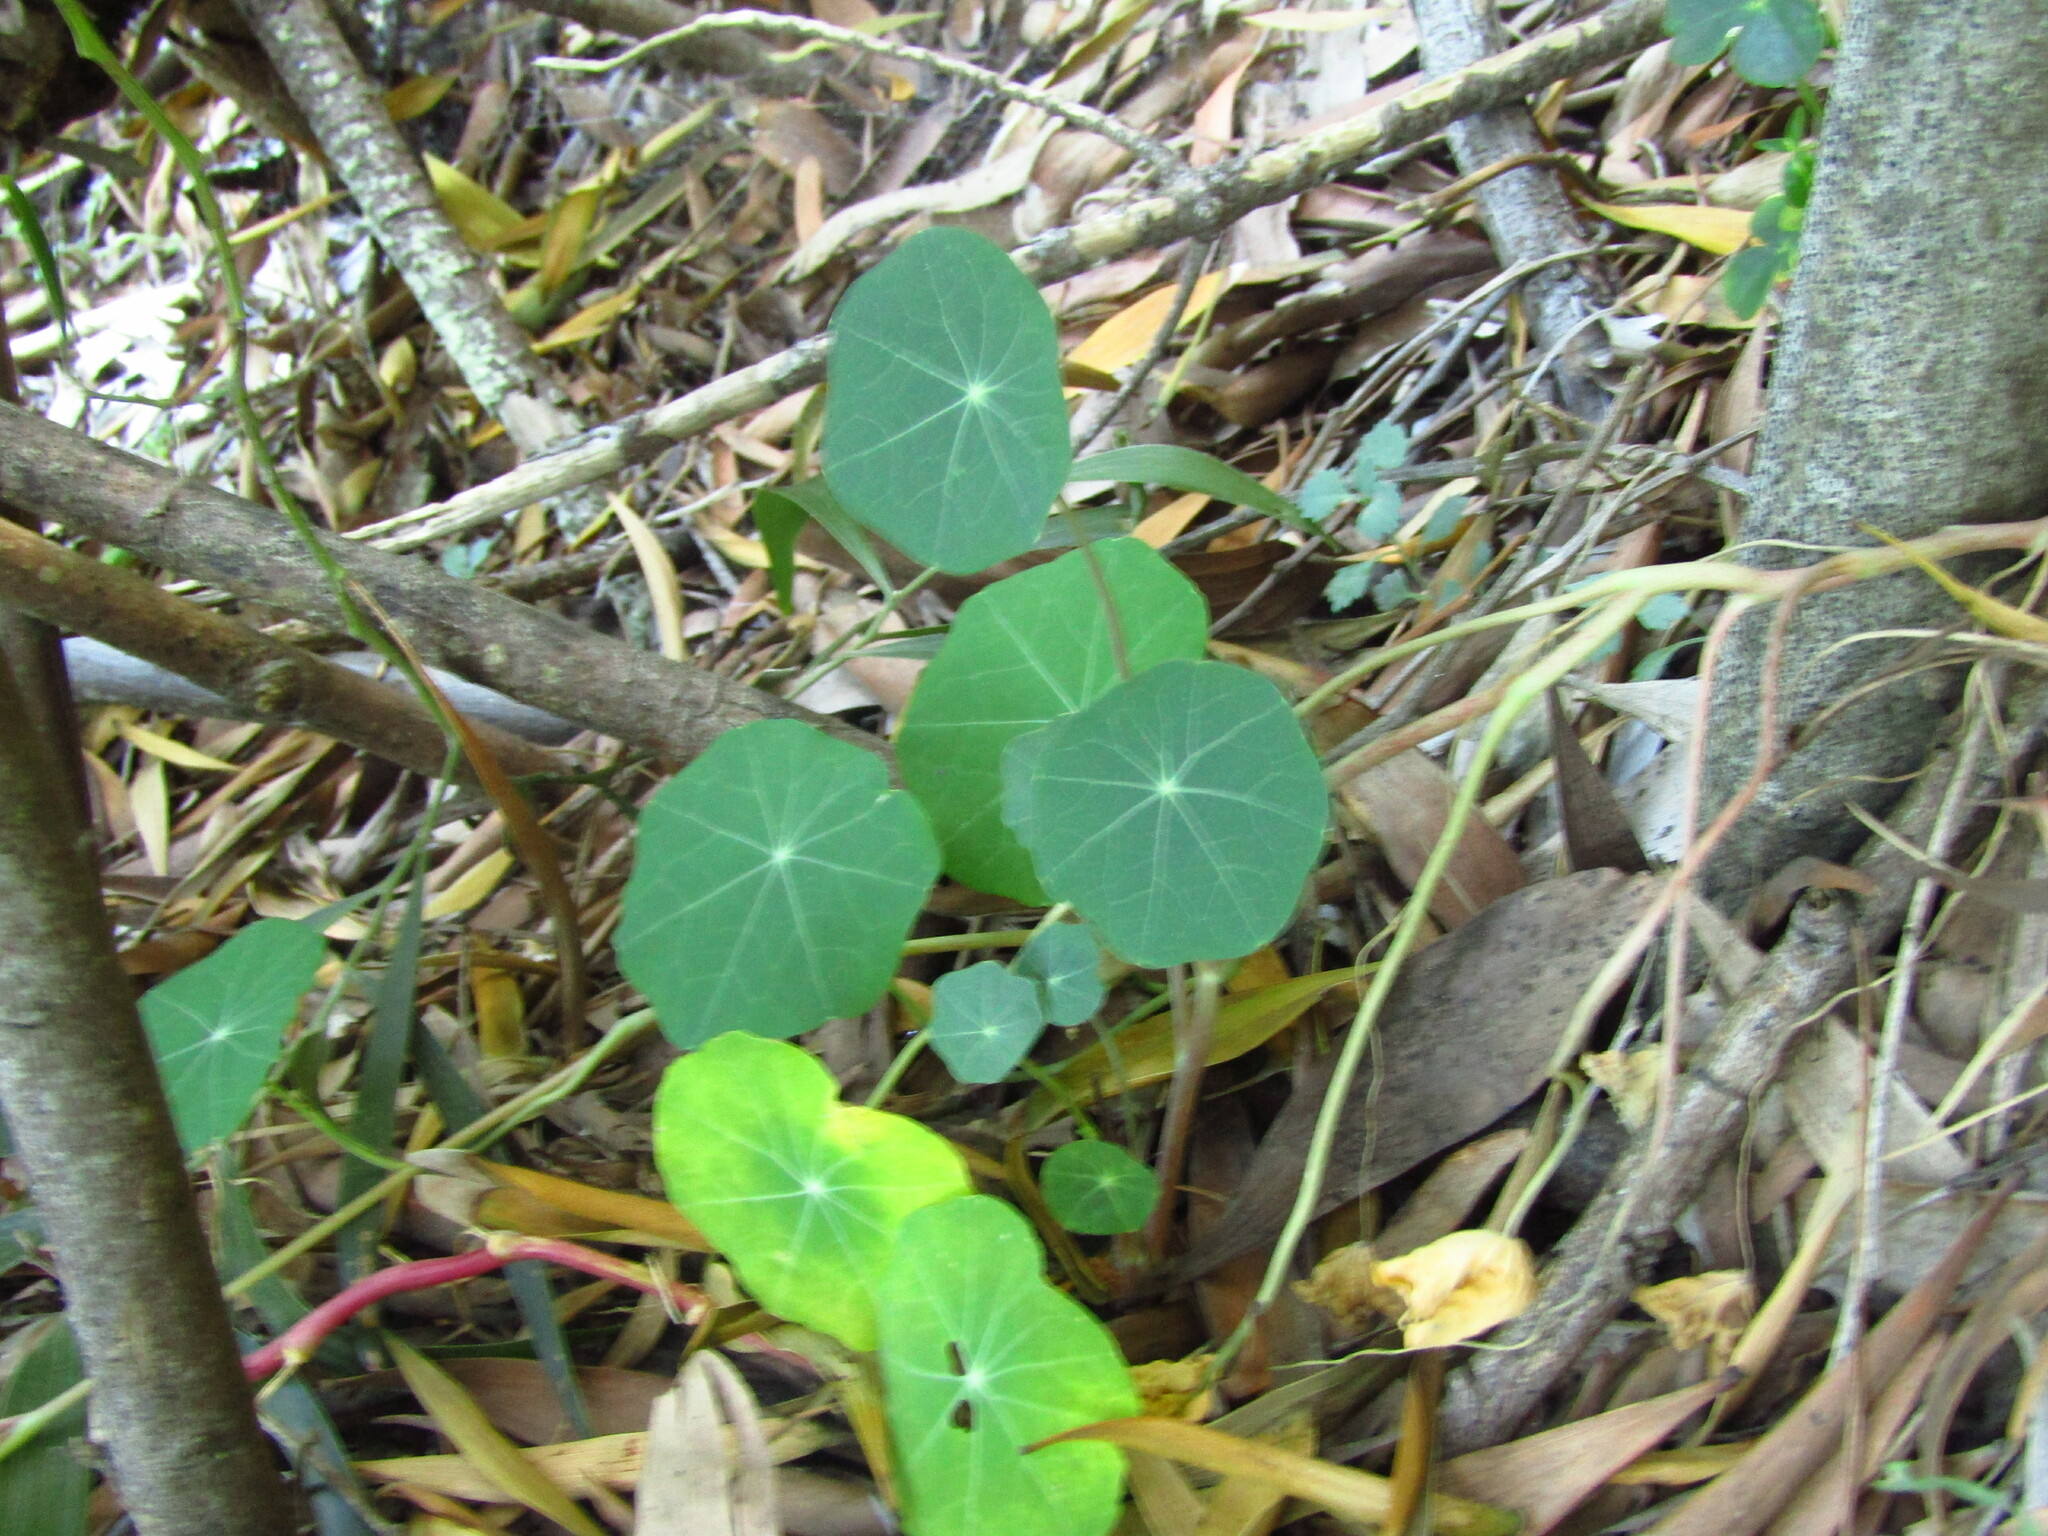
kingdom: Plantae
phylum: Tracheophyta
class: Magnoliopsida
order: Brassicales
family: Tropaeolaceae
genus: Tropaeolum
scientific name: Tropaeolum majus
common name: Nasturtium
